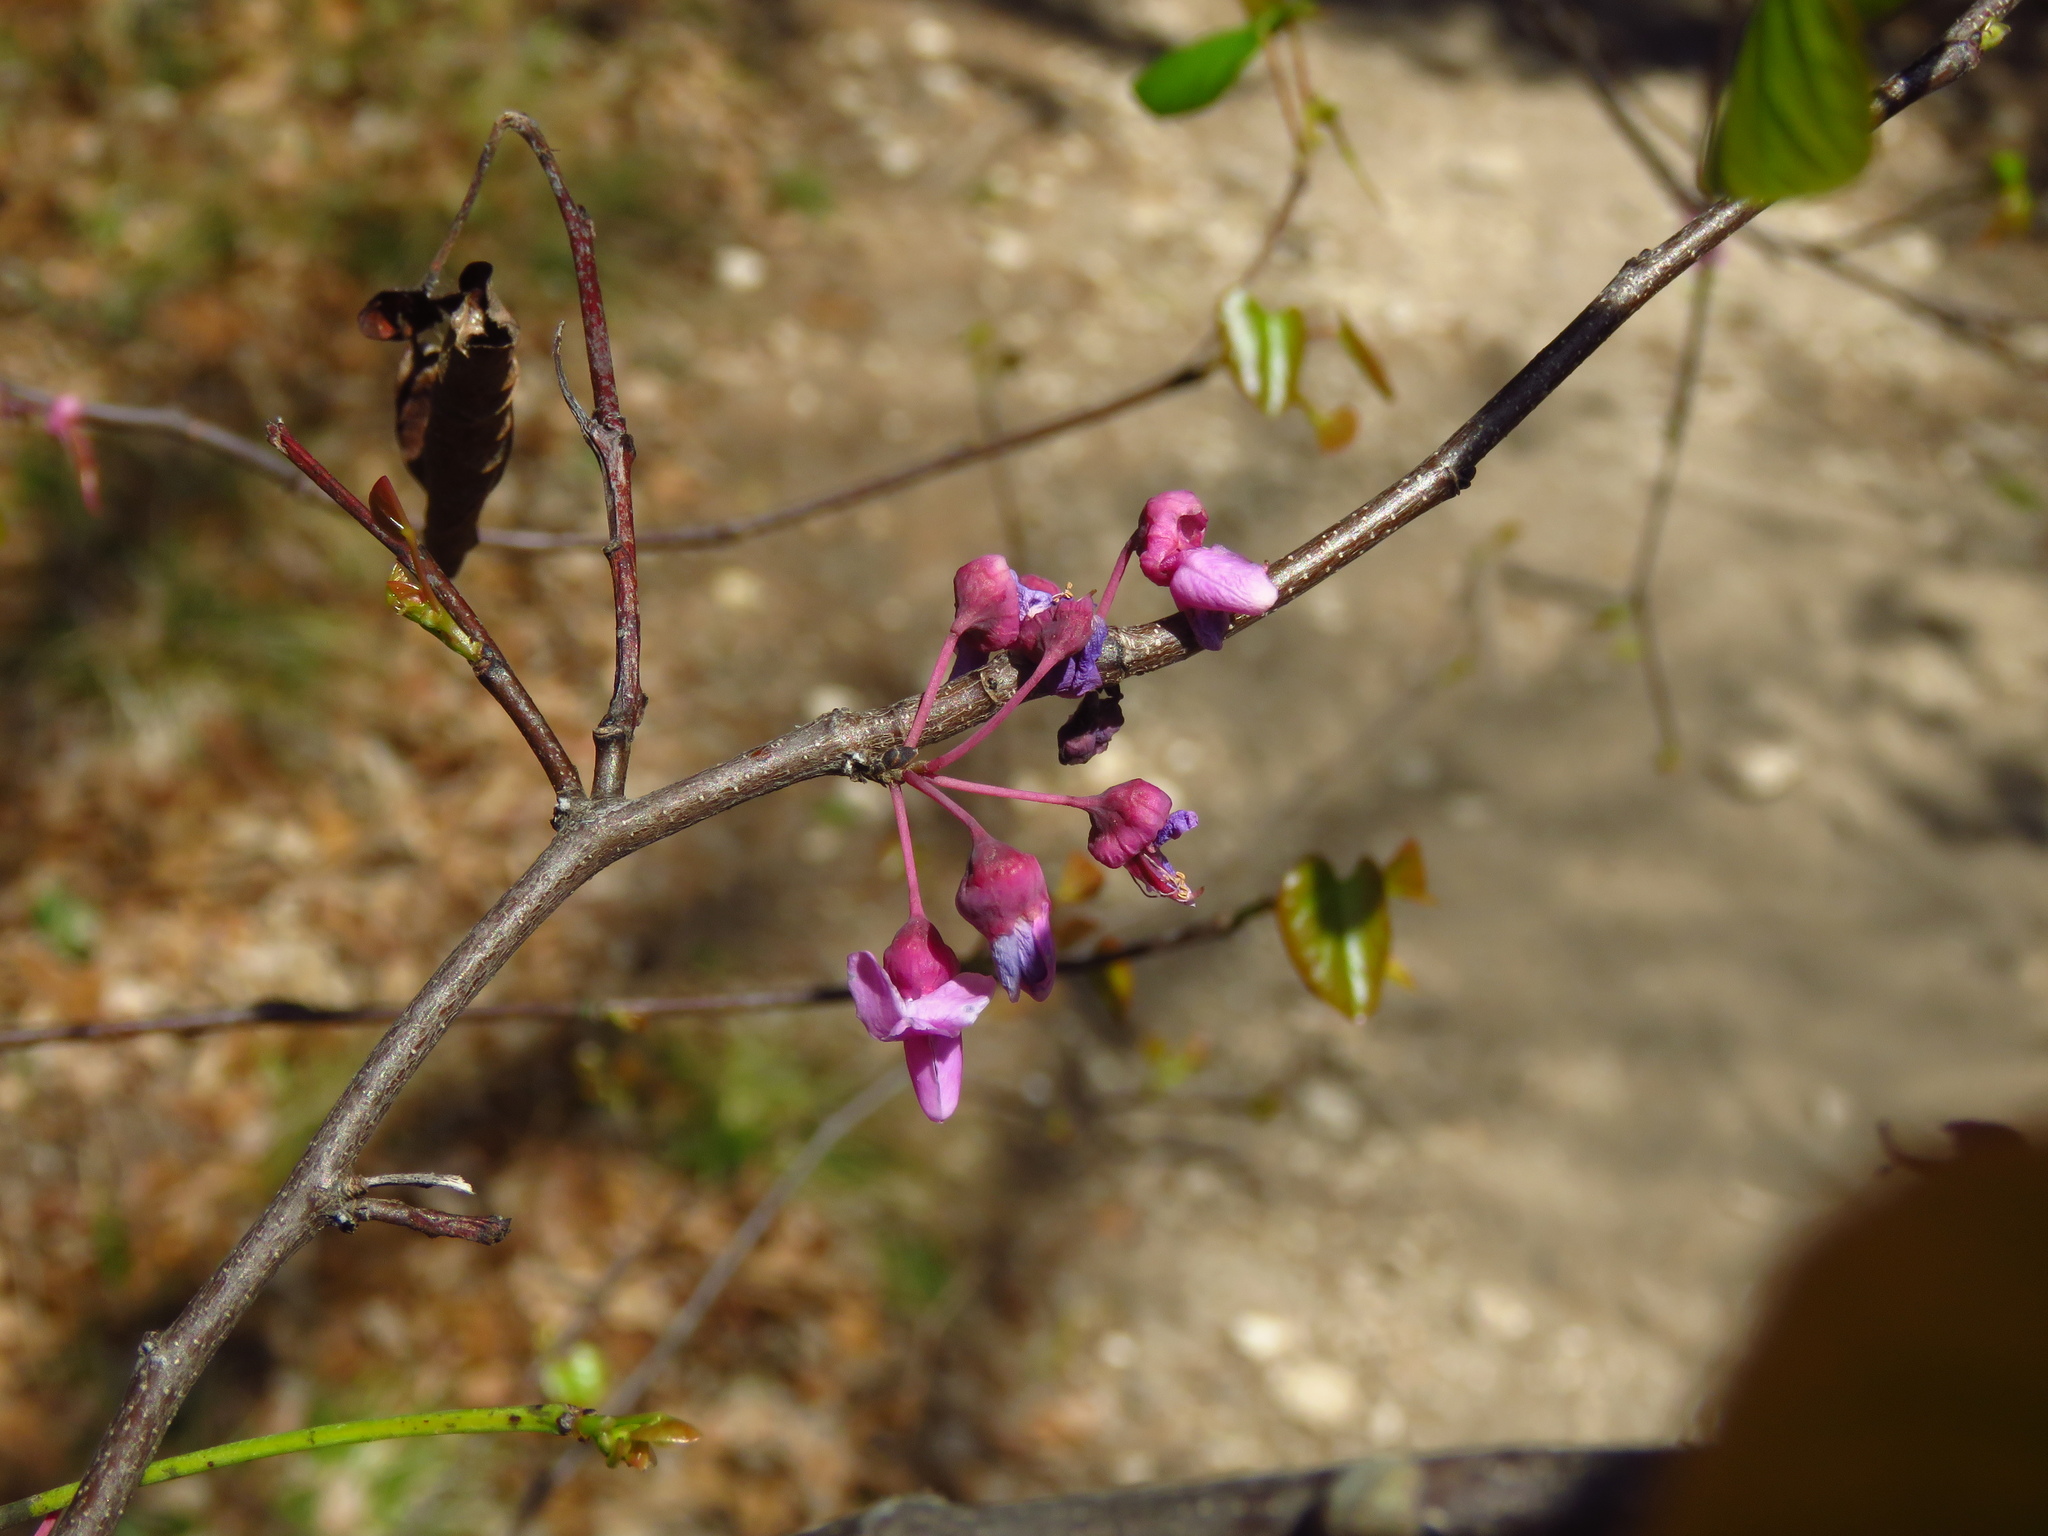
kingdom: Plantae
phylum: Tracheophyta
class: Magnoliopsida
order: Fabales
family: Fabaceae
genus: Cercis
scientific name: Cercis canadensis
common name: Eastern redbud
